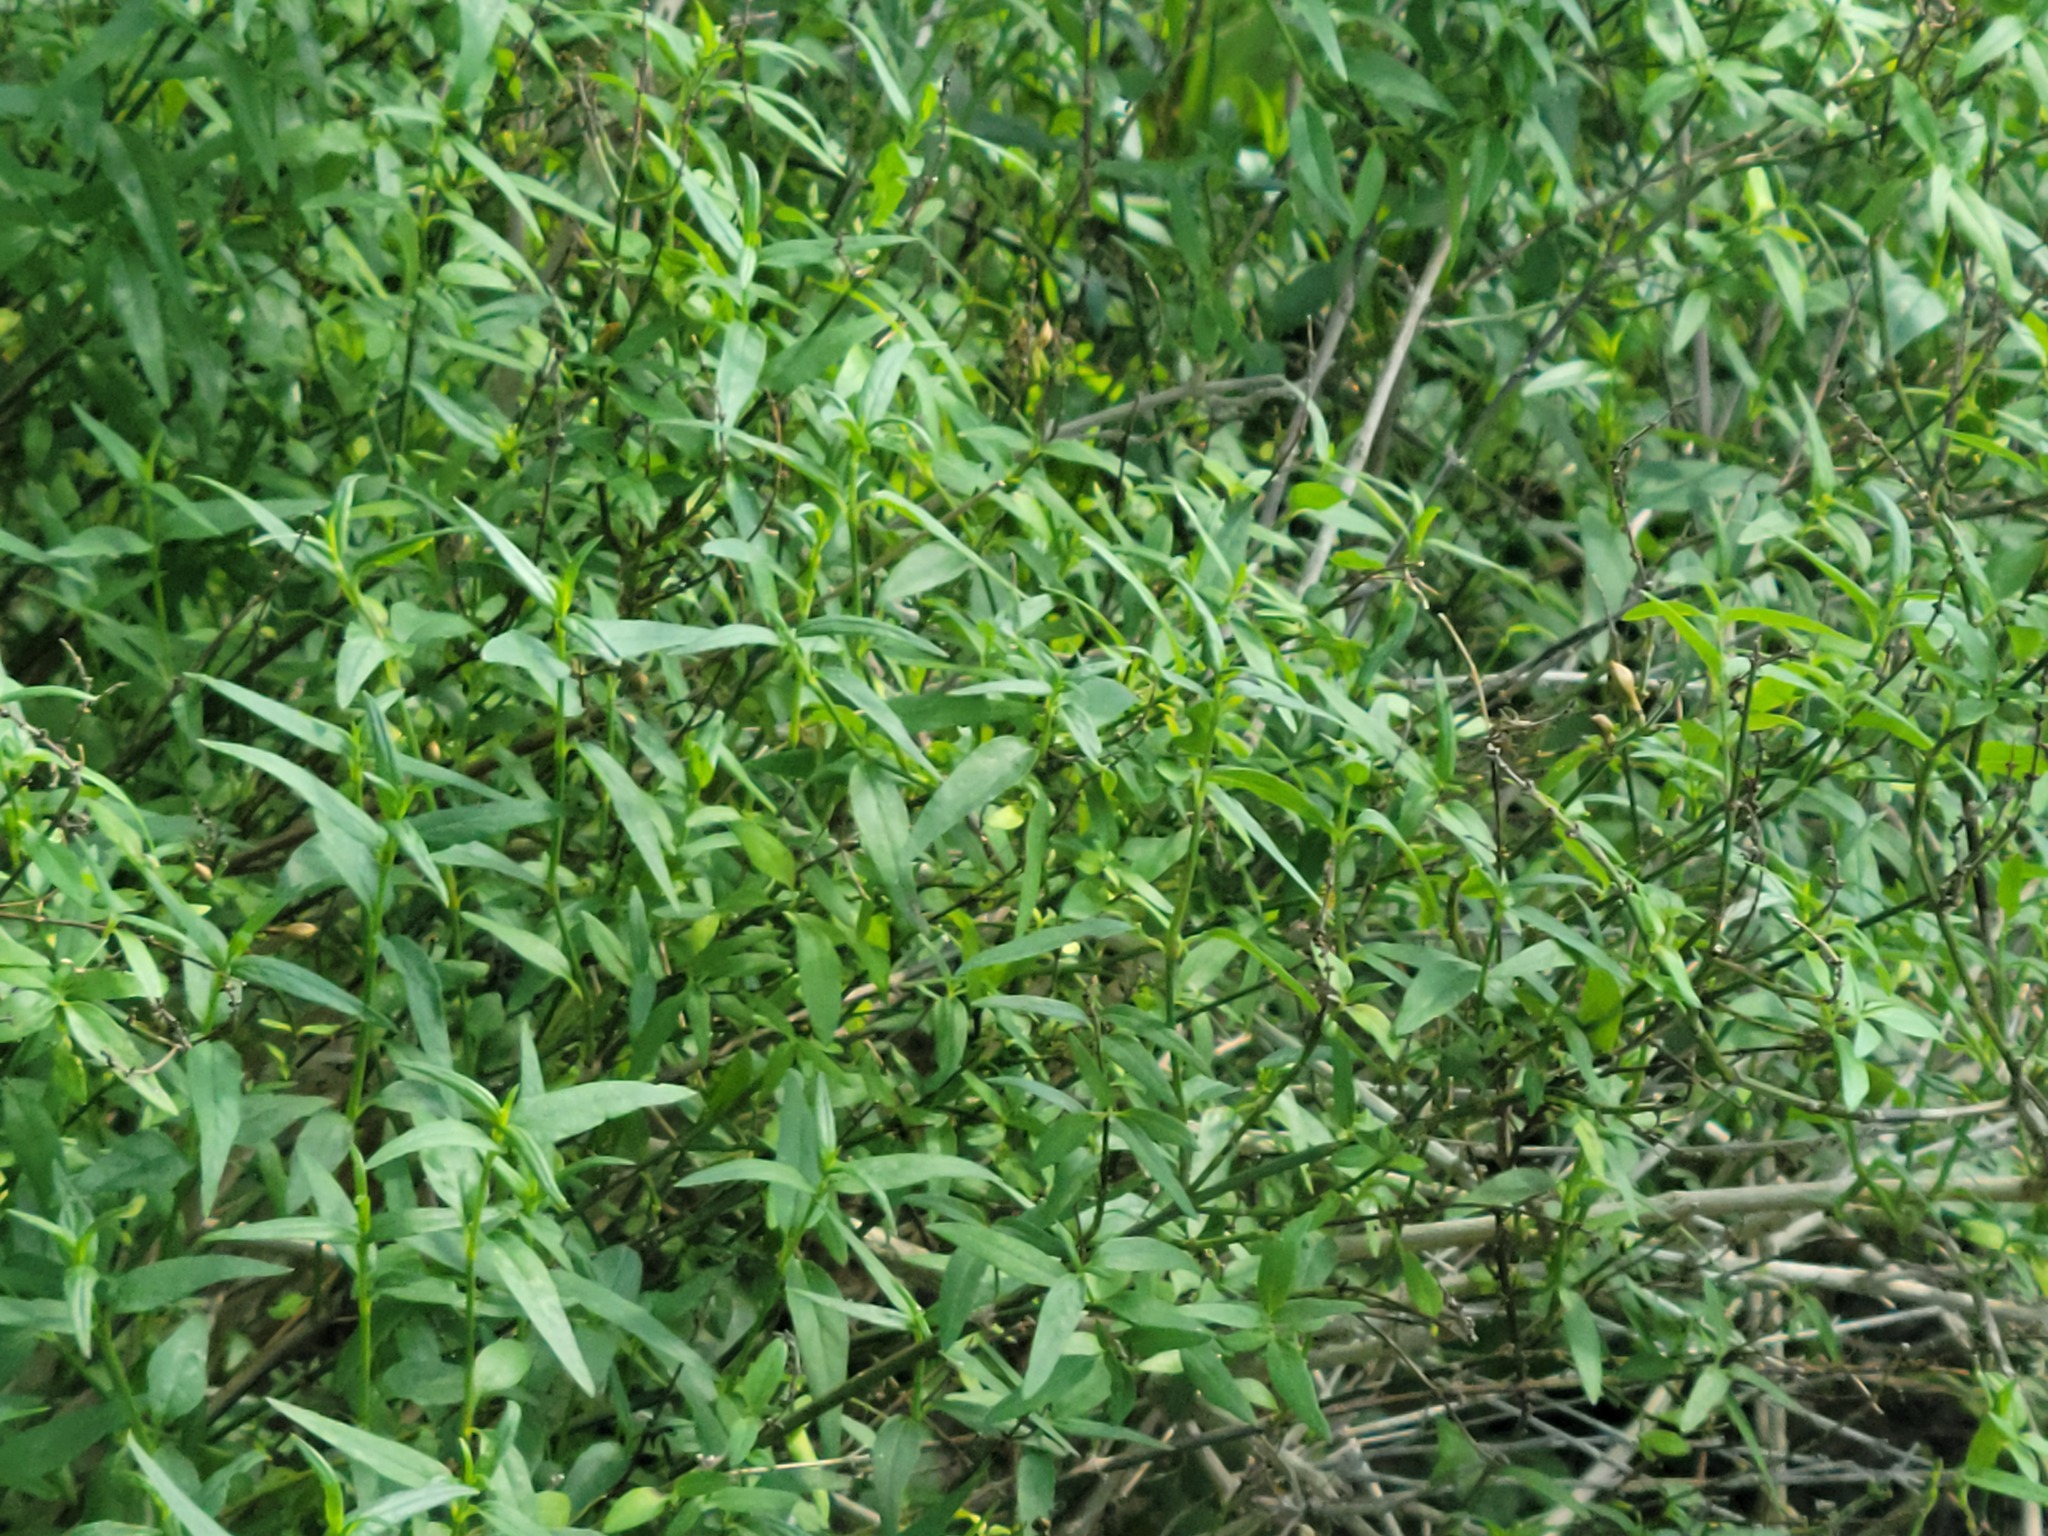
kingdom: Plantae
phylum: Tracheophyta
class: Magnoliopsida
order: Lamiales
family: Acanthaceae
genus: Carlowrightia
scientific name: Carlowrightia parviflora
